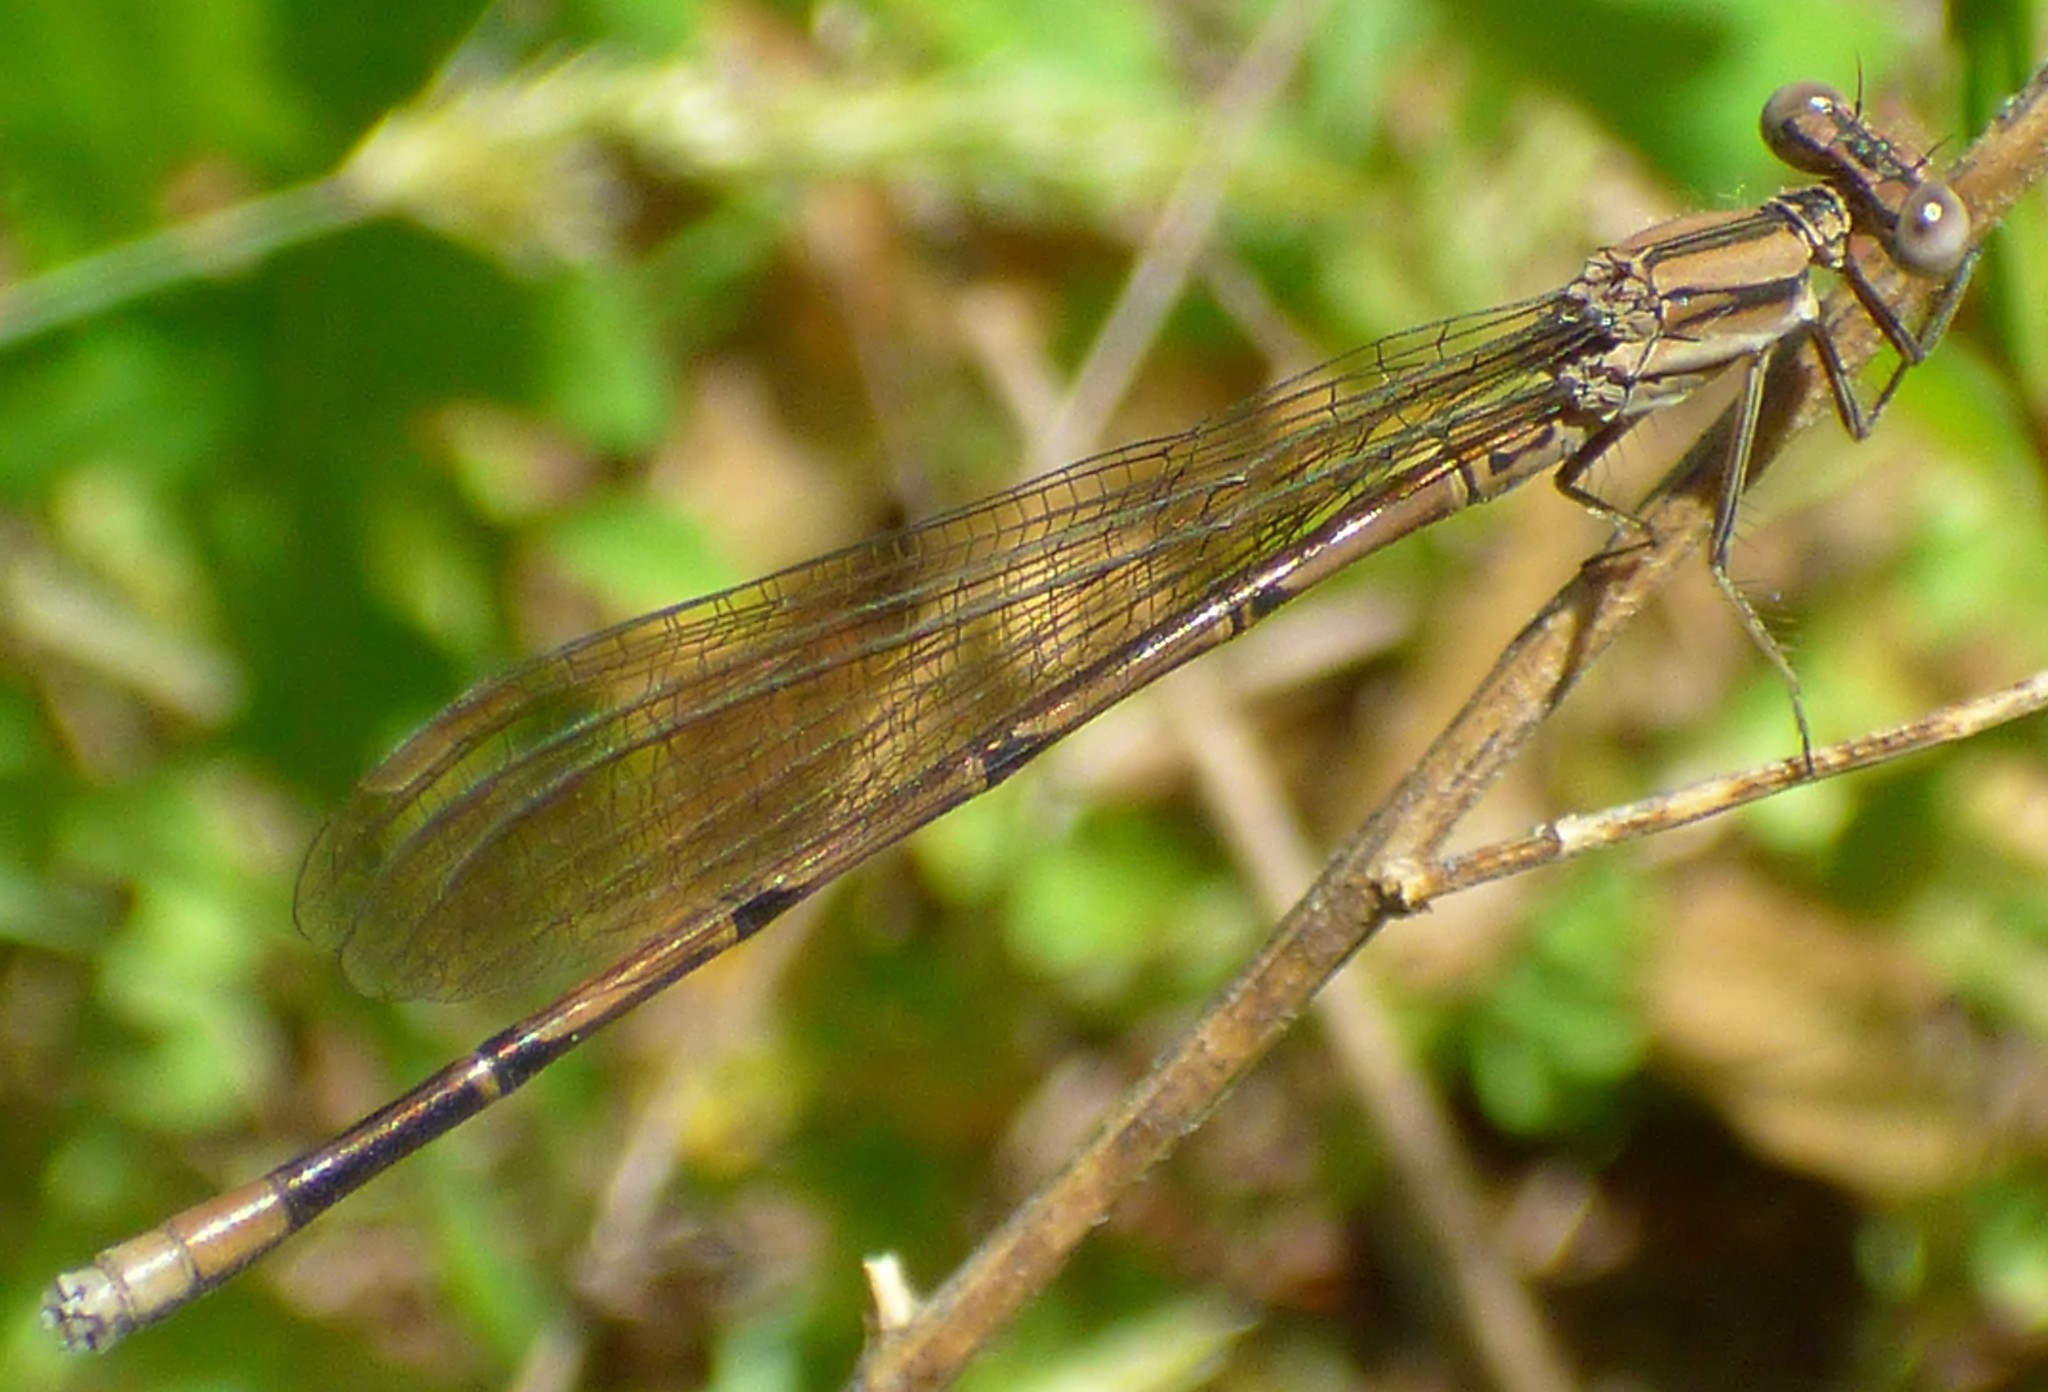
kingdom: Animalia
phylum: Arthropoda
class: Insecta
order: Odonata
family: Coenagrionidae
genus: Argia
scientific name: Argia fumipennis
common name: Variable dancer
